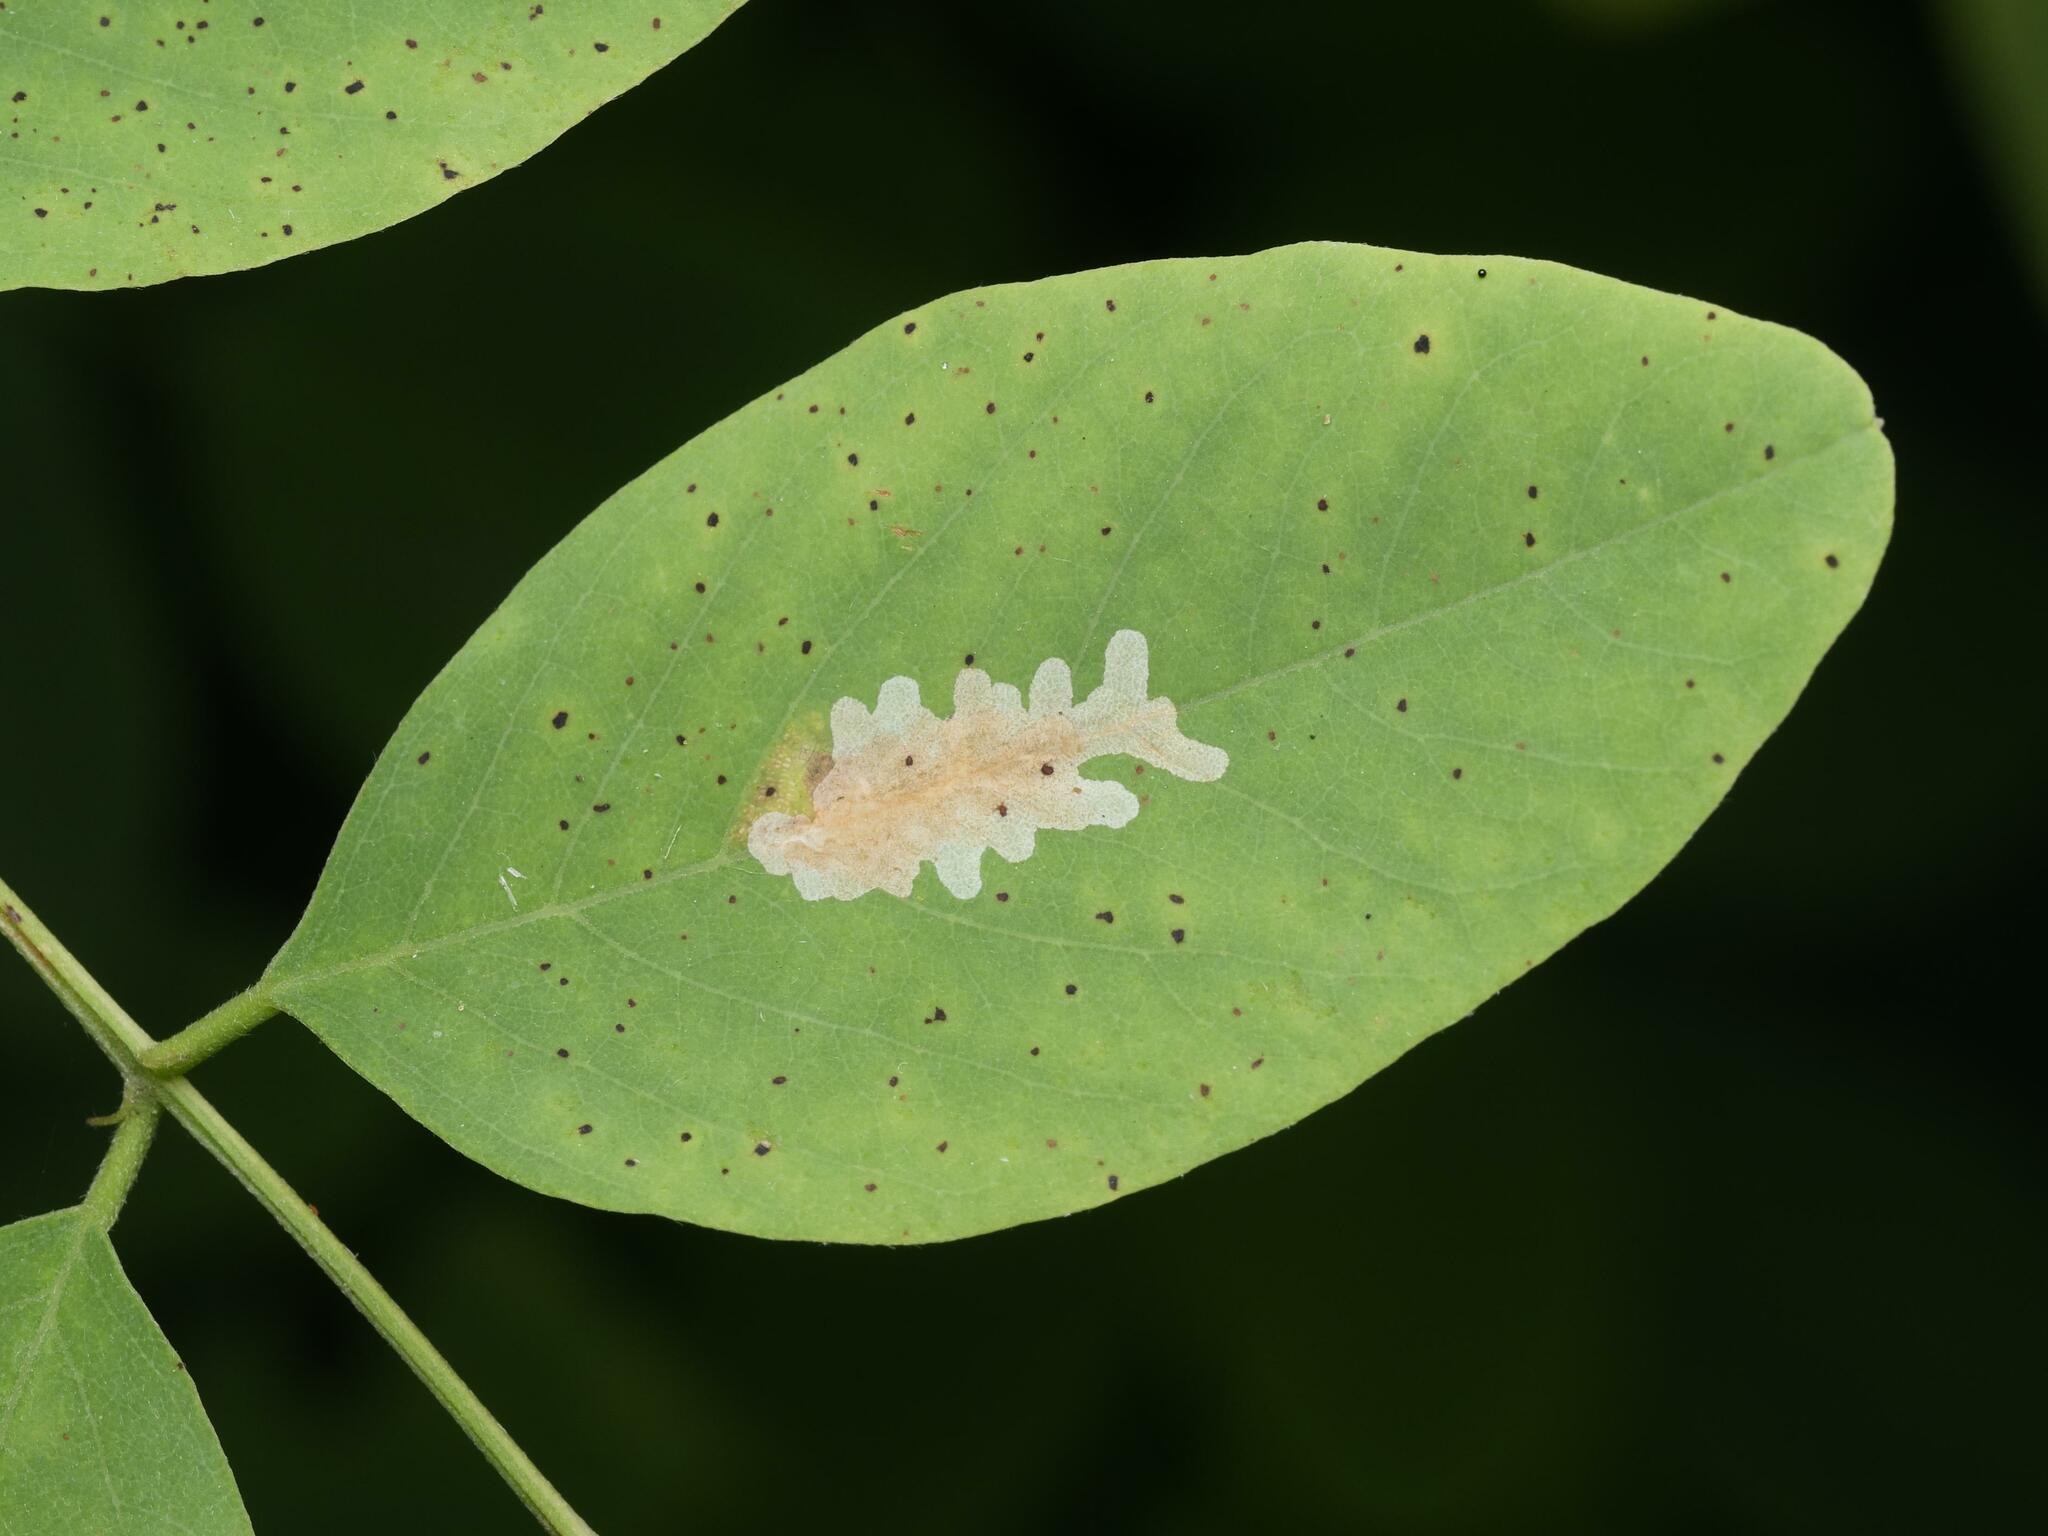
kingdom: Animalia
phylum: Arthropoda
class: Insecta
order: Lepidoptera
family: Gracillariidae
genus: Parectopa
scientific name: Parectopa robiniella
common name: Locust digitate leafminer
